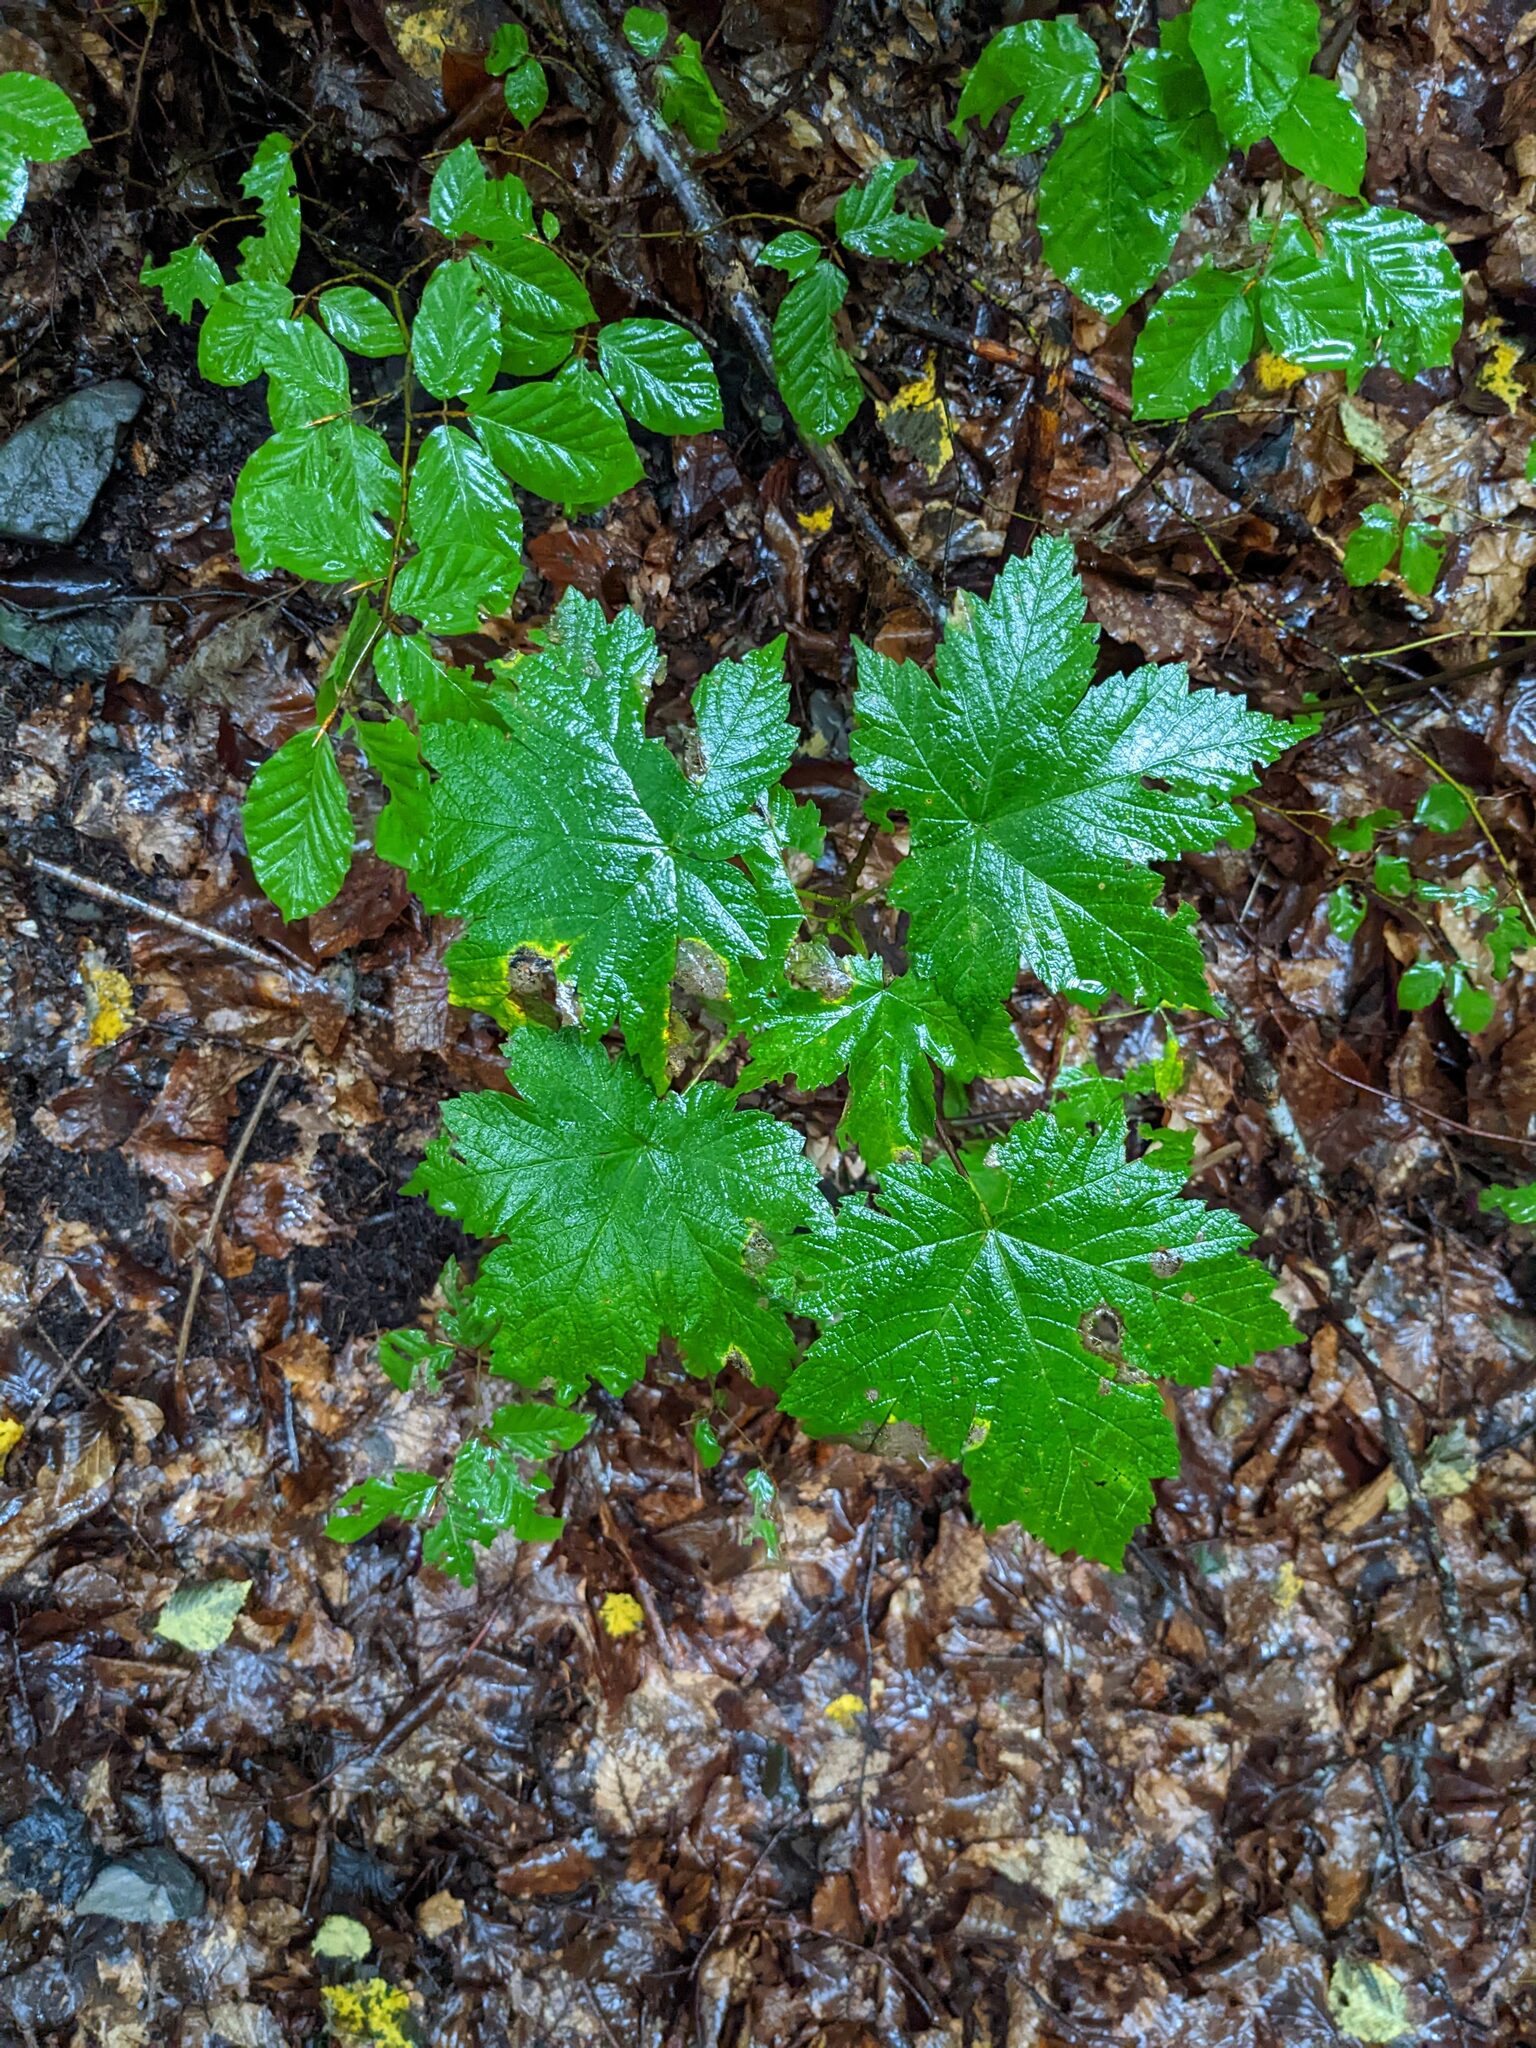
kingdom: Plantae
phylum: Tracheophyta
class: Magnoliopsida
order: Sapindales
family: Sapindaceae
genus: Acer
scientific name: Acer pseudoplatanus
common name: Sycamore
